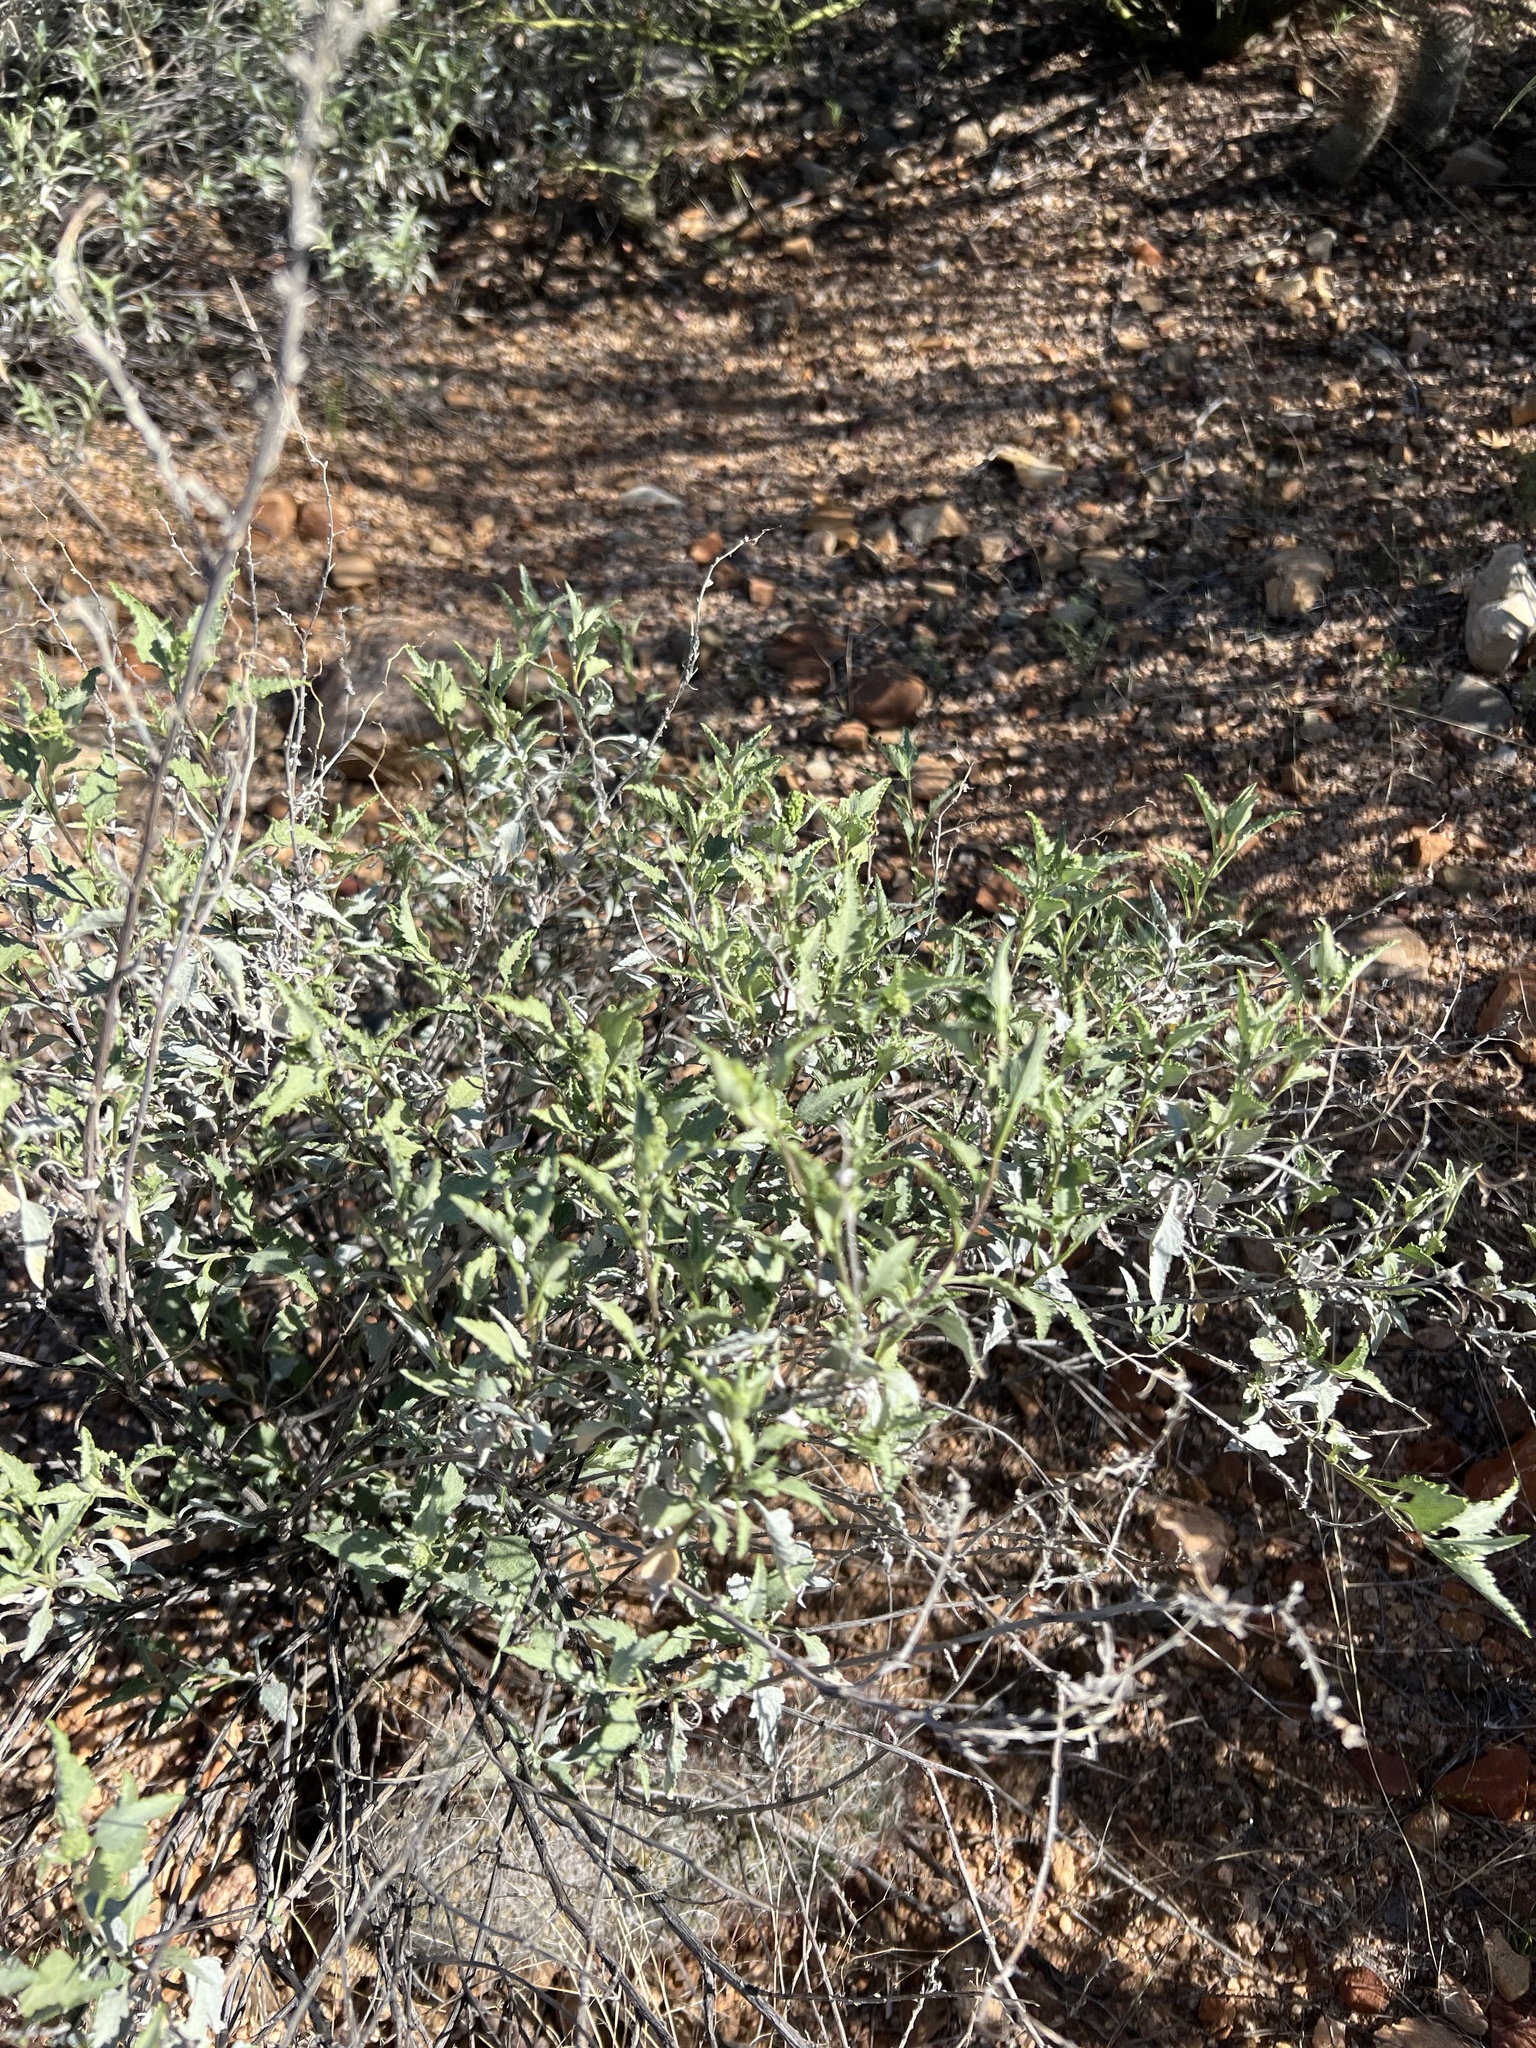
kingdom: Plantae
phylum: Tracheophyta
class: Magnoliopsida
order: Asterales
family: Asteraceae
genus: Ambrosia
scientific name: Ambrosia deltoidea
